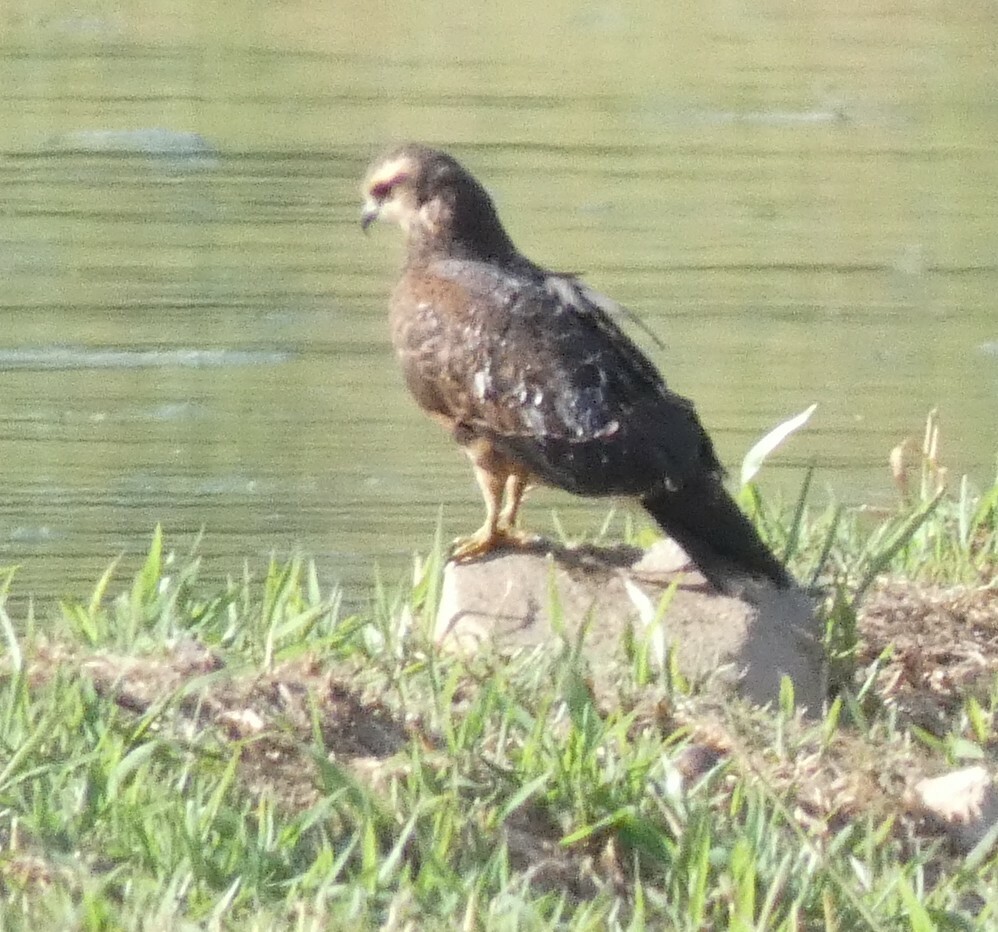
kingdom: Animalia
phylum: Chordata
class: Aves
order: Accipitriformes
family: Accipitridae
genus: Rostrhamus
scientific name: Rostrhamus sociabilis
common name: Snail kite
